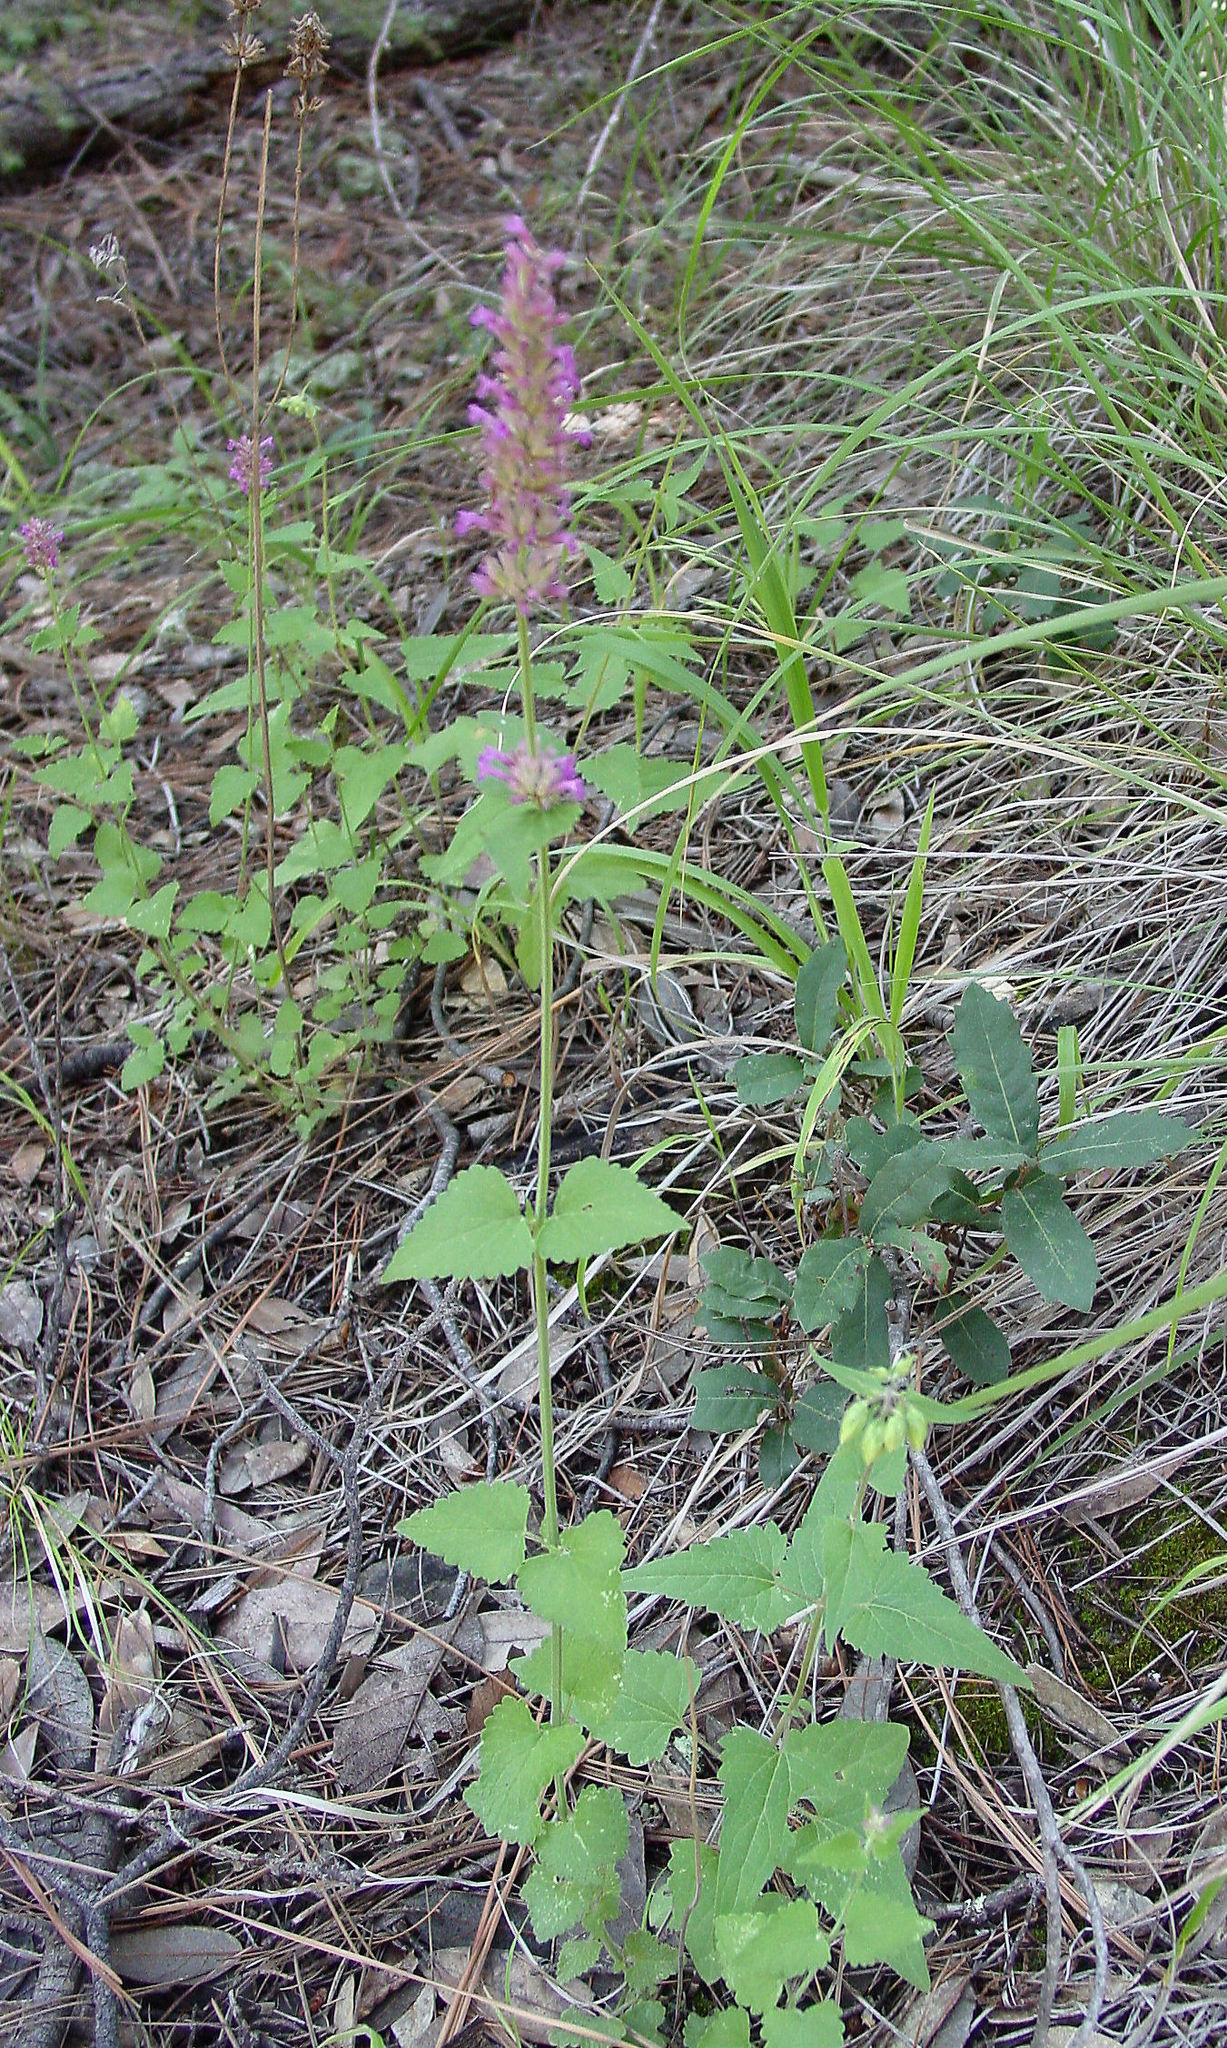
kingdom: Plantae
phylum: Tracheophyta
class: Magnoliopsida
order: Lamiales
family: Lamiaceae
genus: Agastache
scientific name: Agastache pallidiflora
